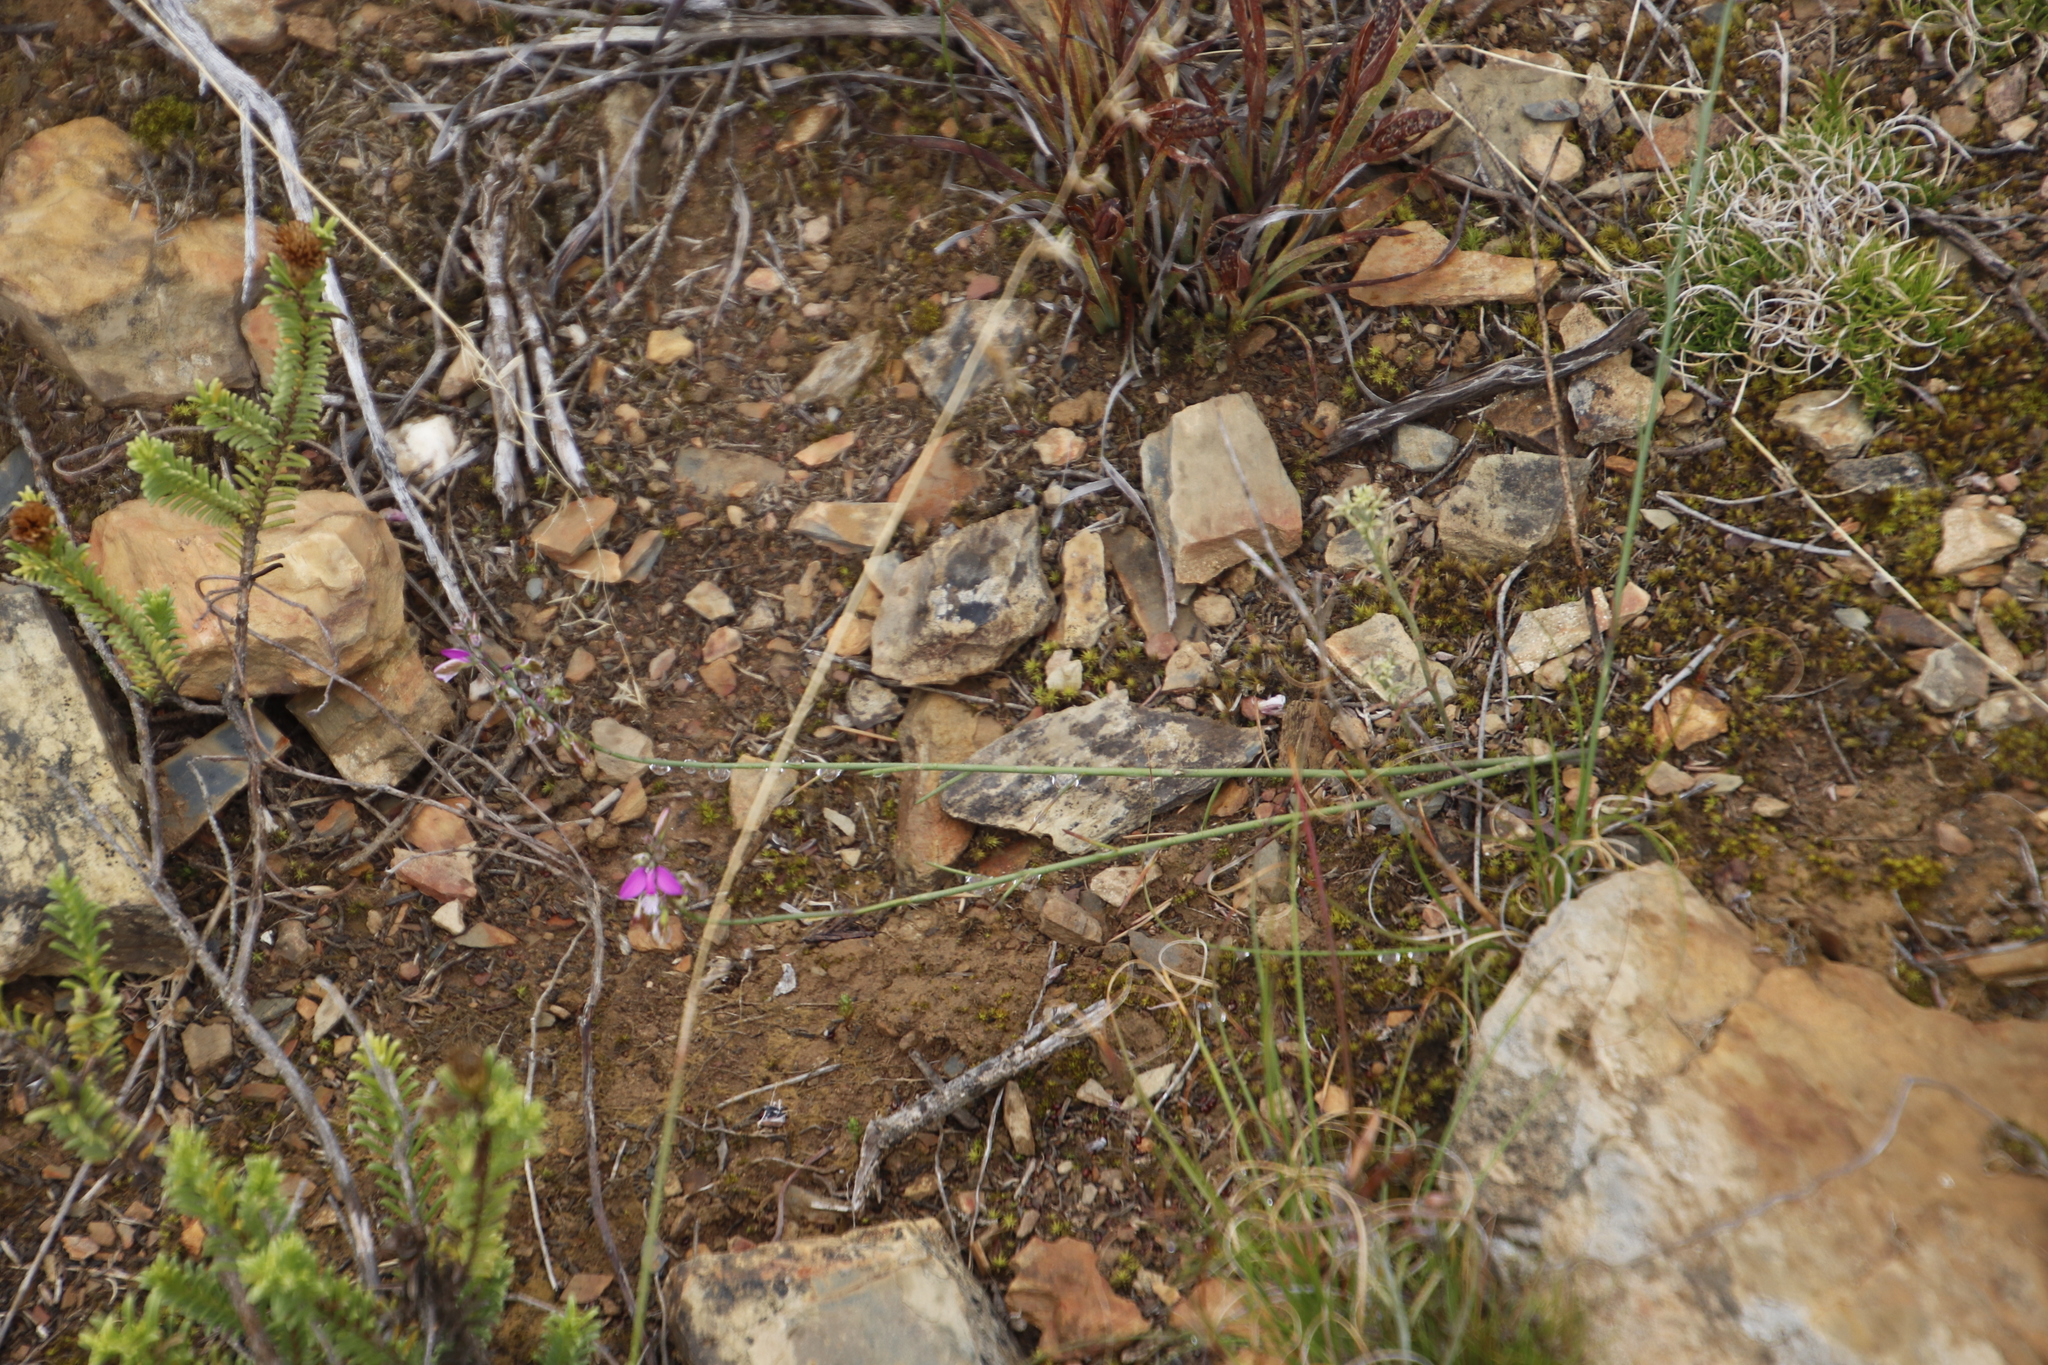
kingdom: Plantae
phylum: Tracheophyta
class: Magnoliopsida
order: Fabales
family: Polygalaceae
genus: Polygala
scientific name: Polygala garcini
